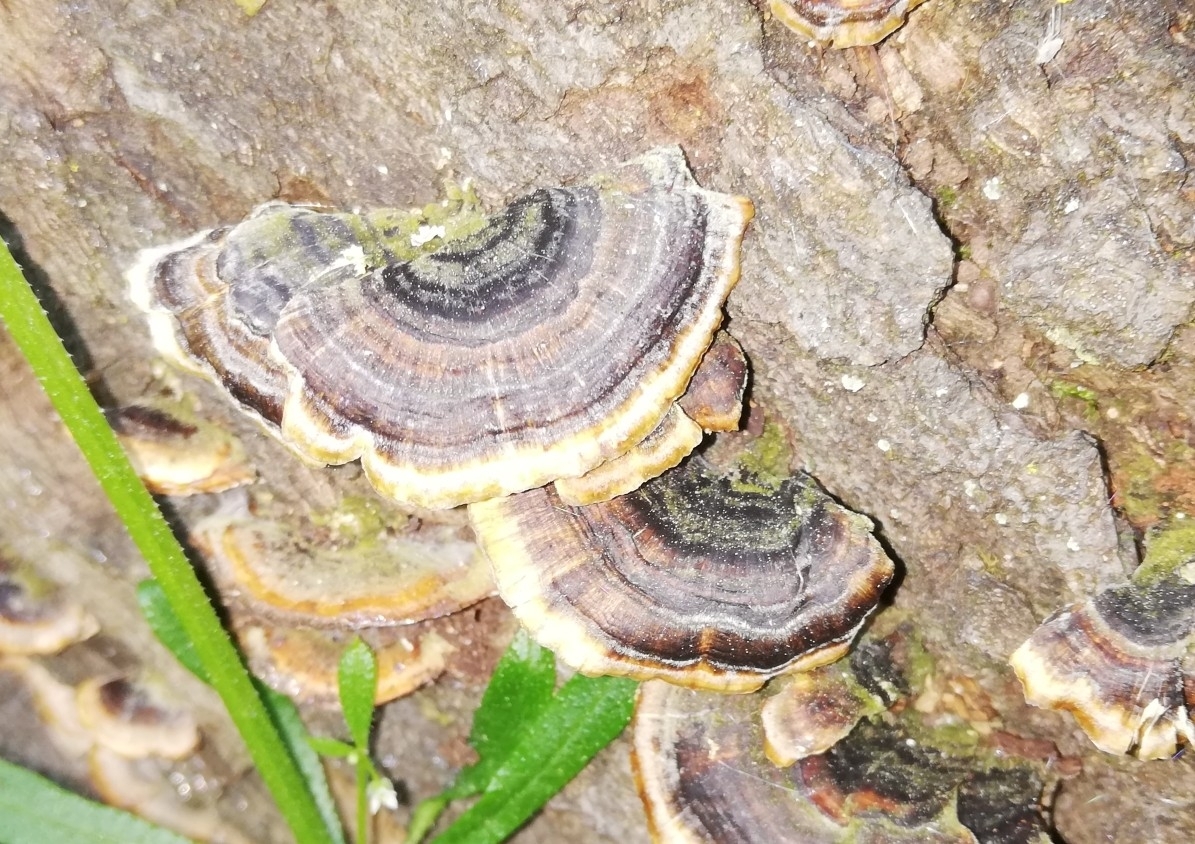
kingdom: Fungi
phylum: Basidiomycota
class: Agaricomycetes
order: Polyporales
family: Polyporaceae
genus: Trametes
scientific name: Trametes versicolor
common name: Turkeytail
